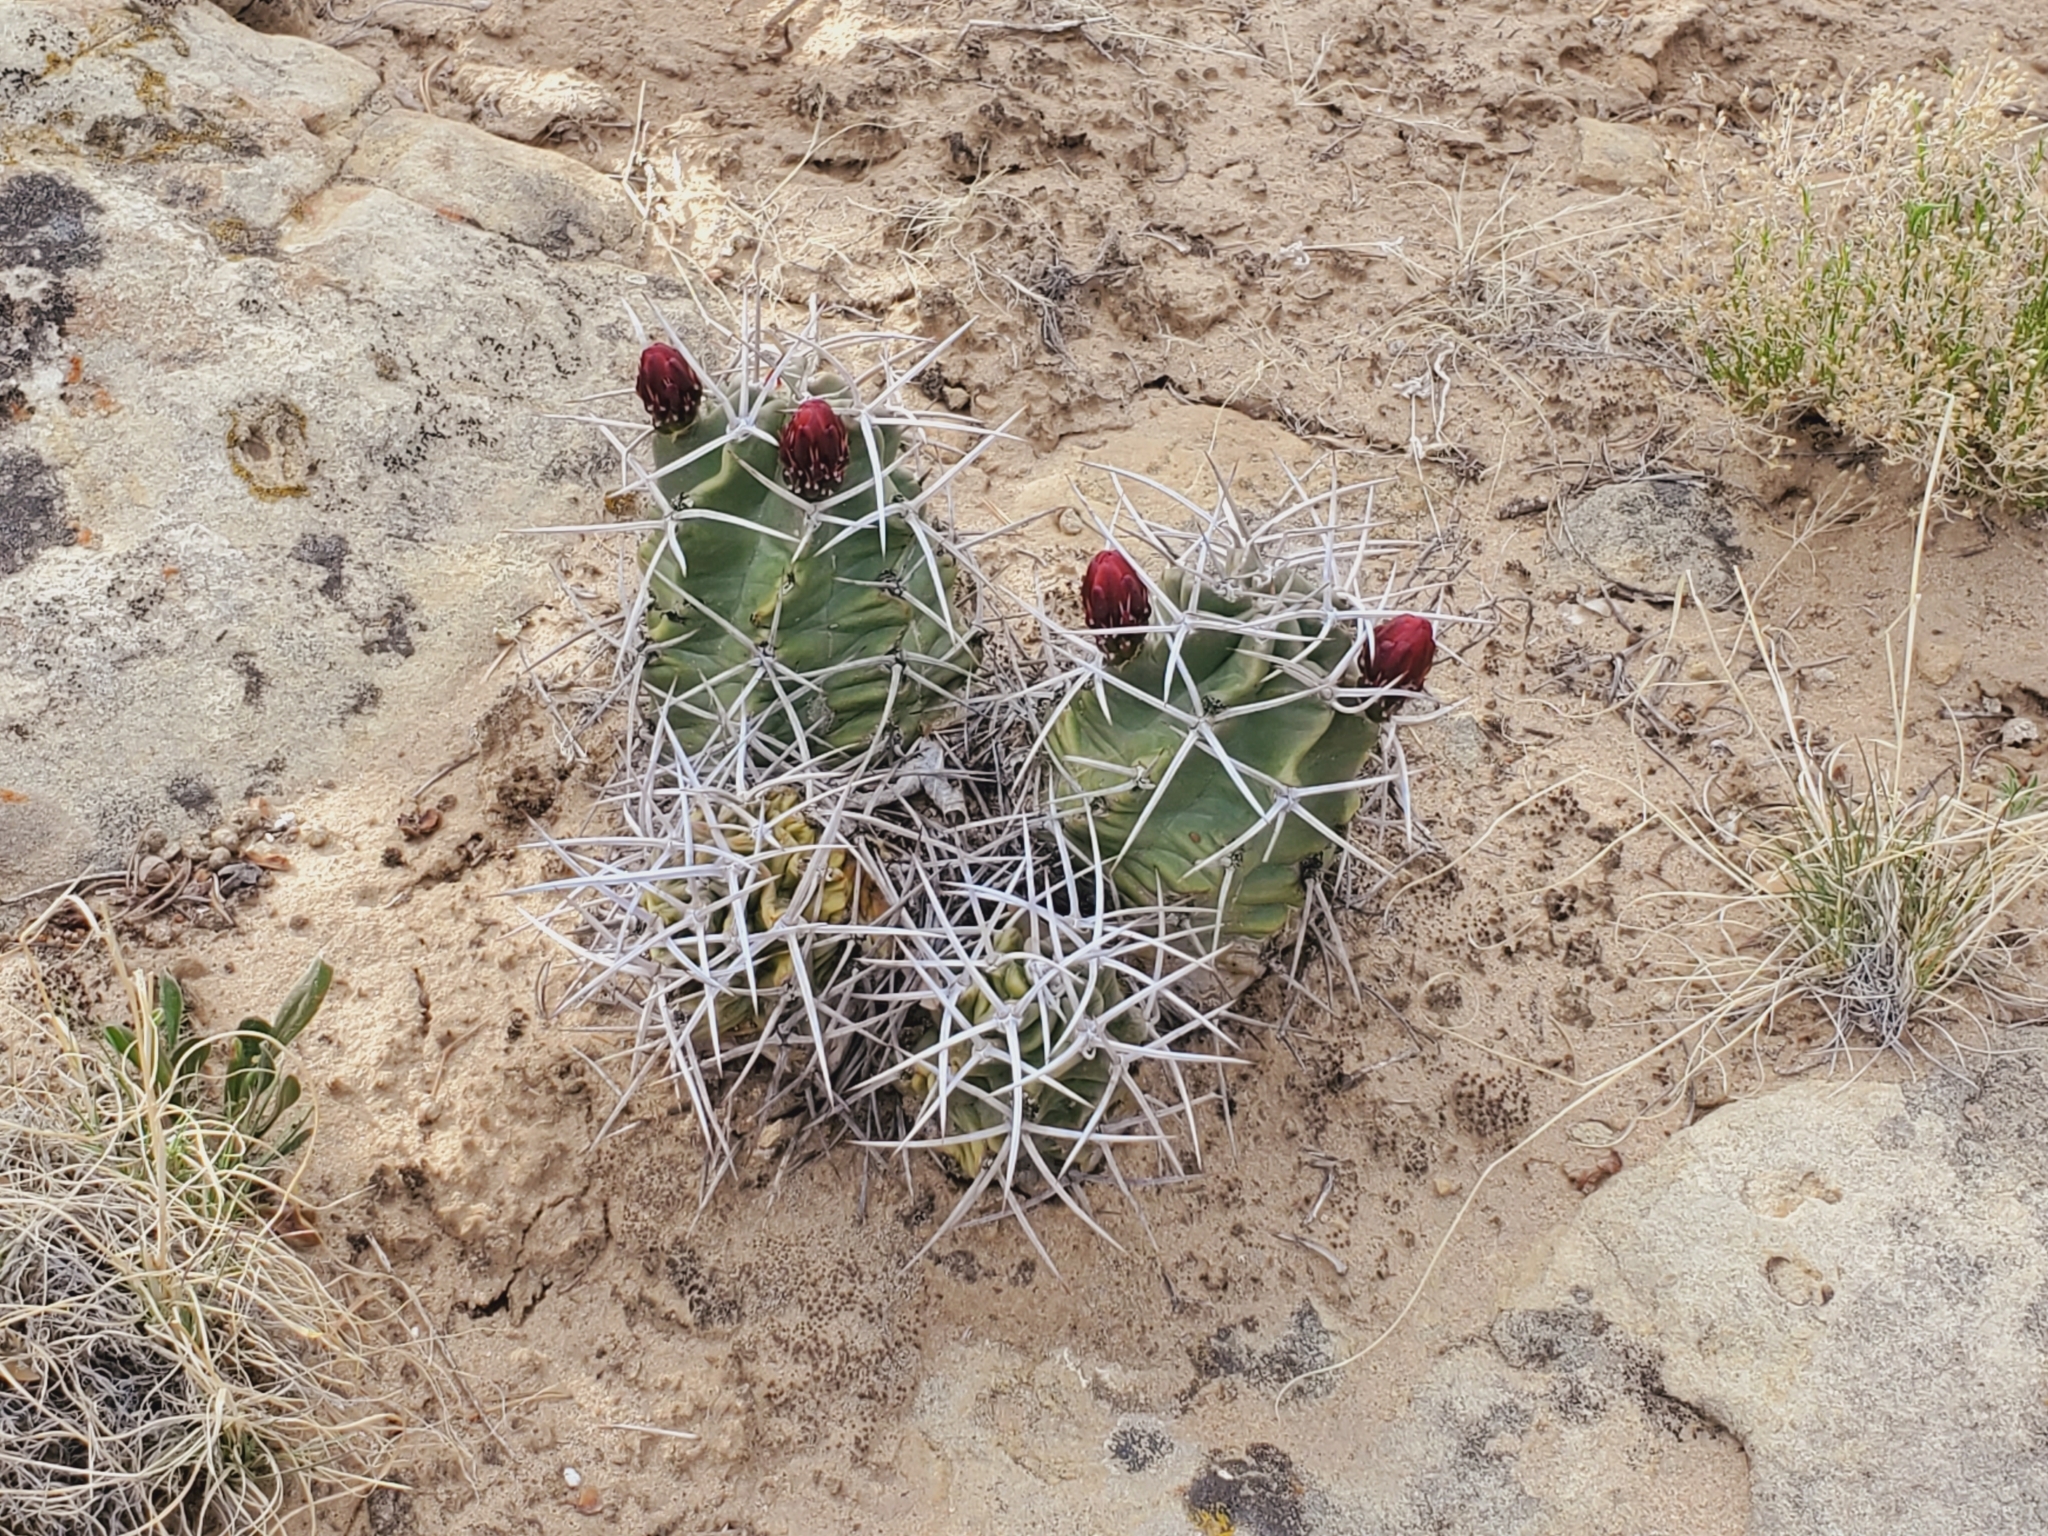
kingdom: Plantae
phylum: Tracheophyta
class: Magnoliopsida
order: Caryophyllales
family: Cactaceae
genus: Echinocereus
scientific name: Echinocereus triglochidiatus
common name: Claretcup hedgehog
